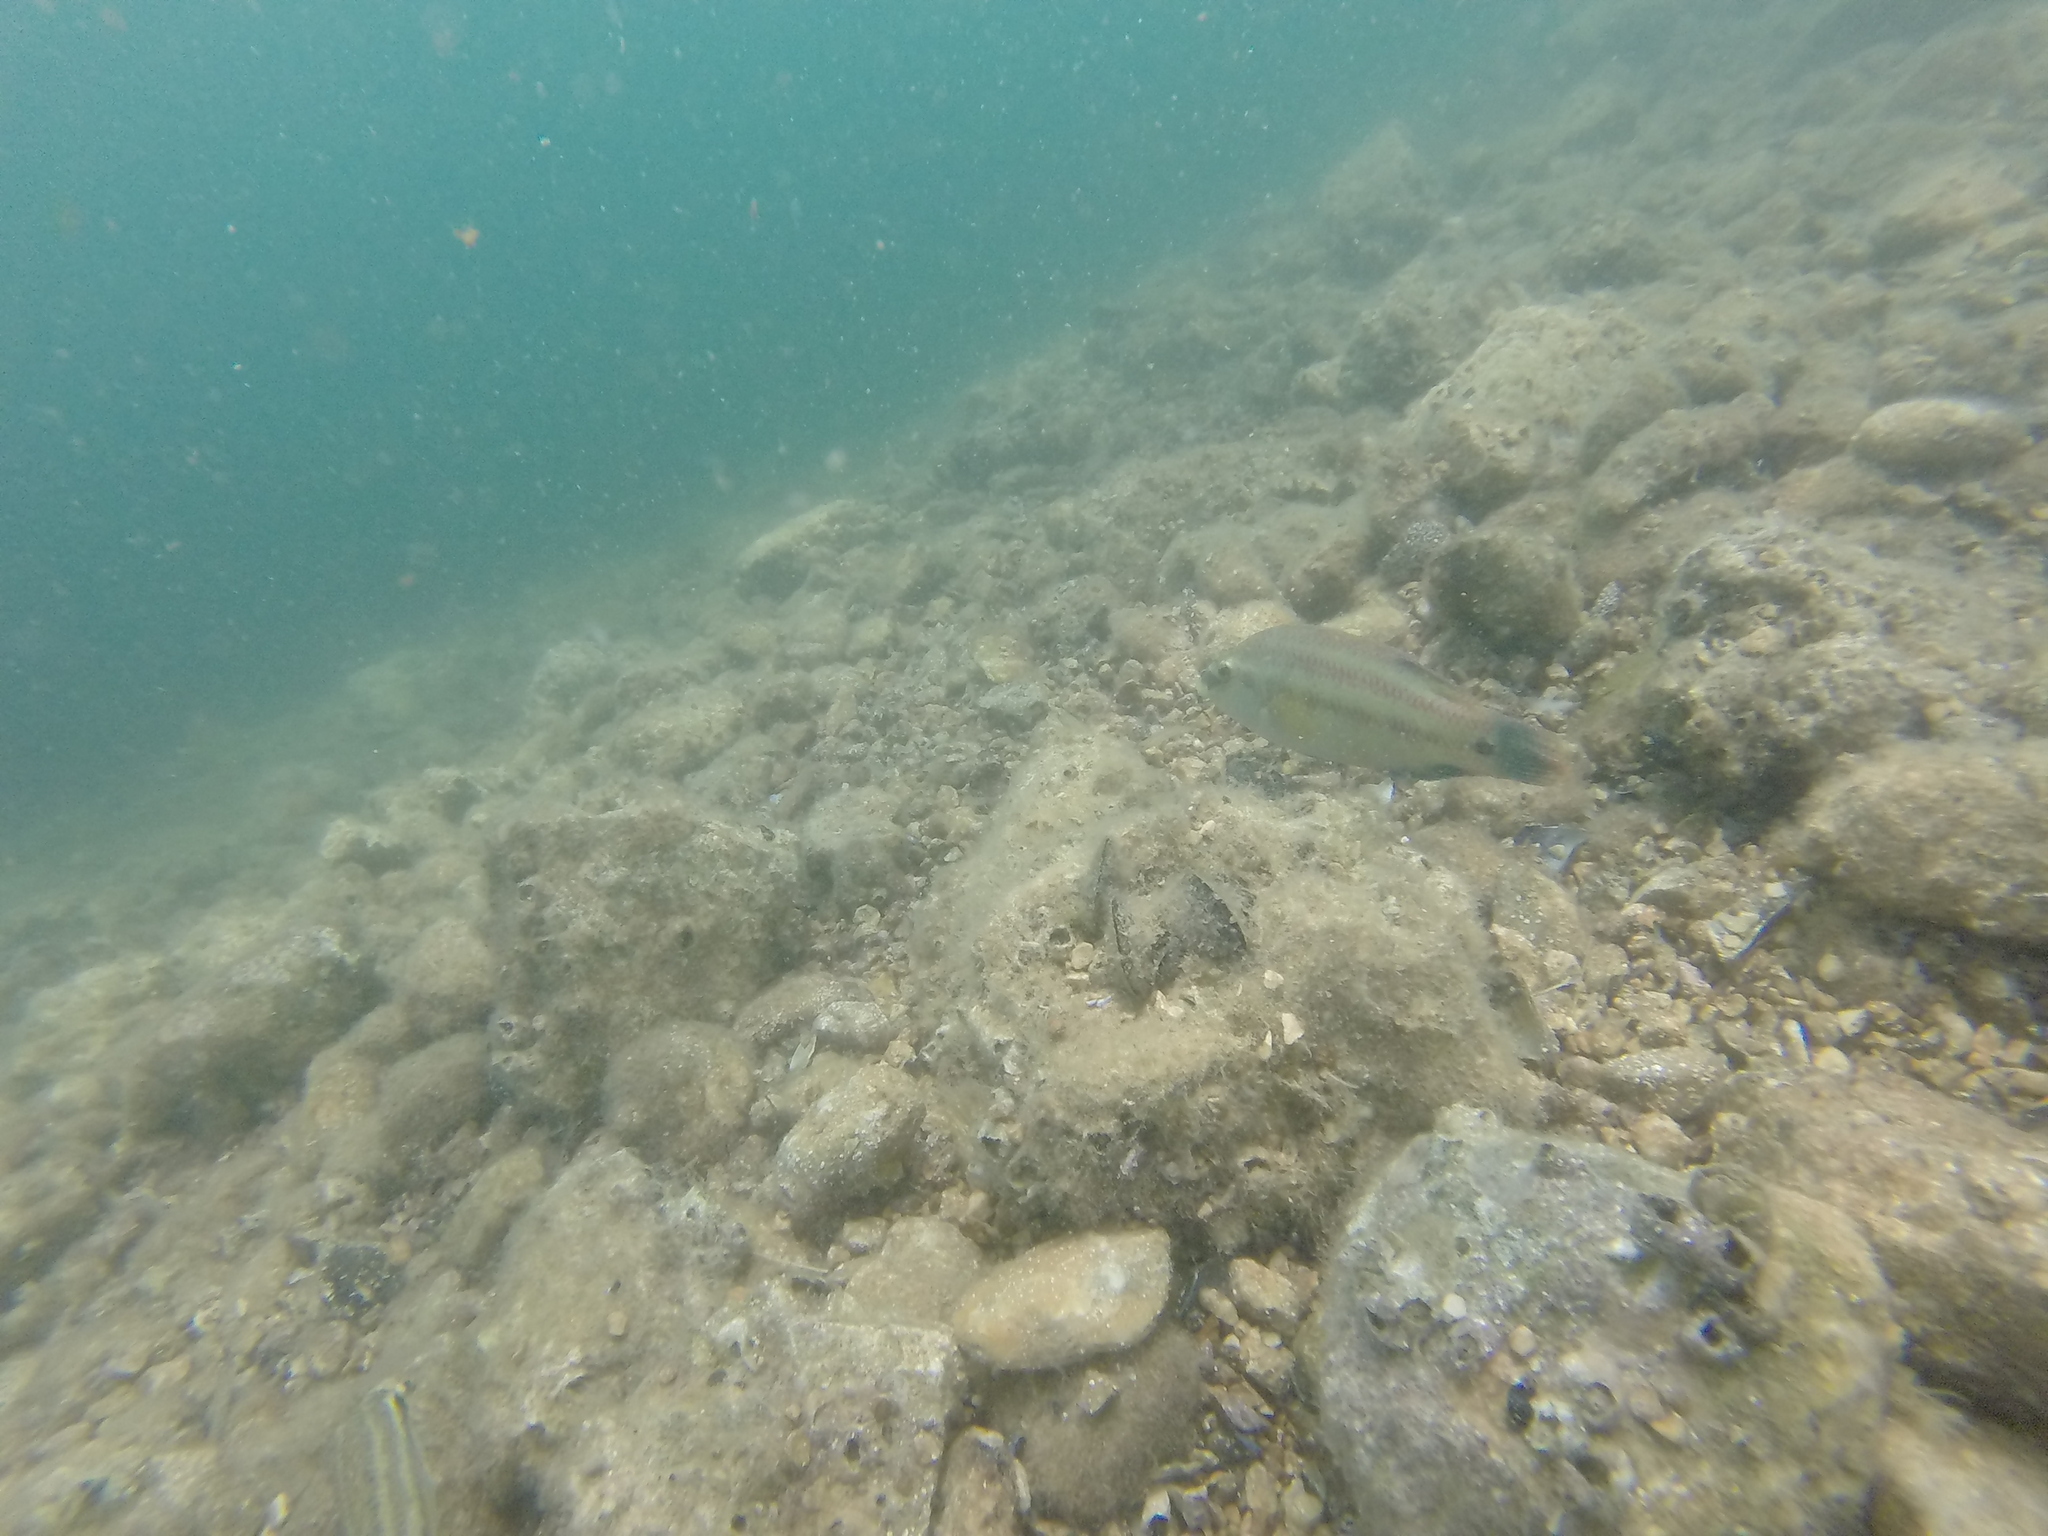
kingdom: Animalia
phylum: Chordata
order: Perciformes
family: Labridae
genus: Symphodus
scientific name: Symphodus tinca
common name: Peacock wrasse
